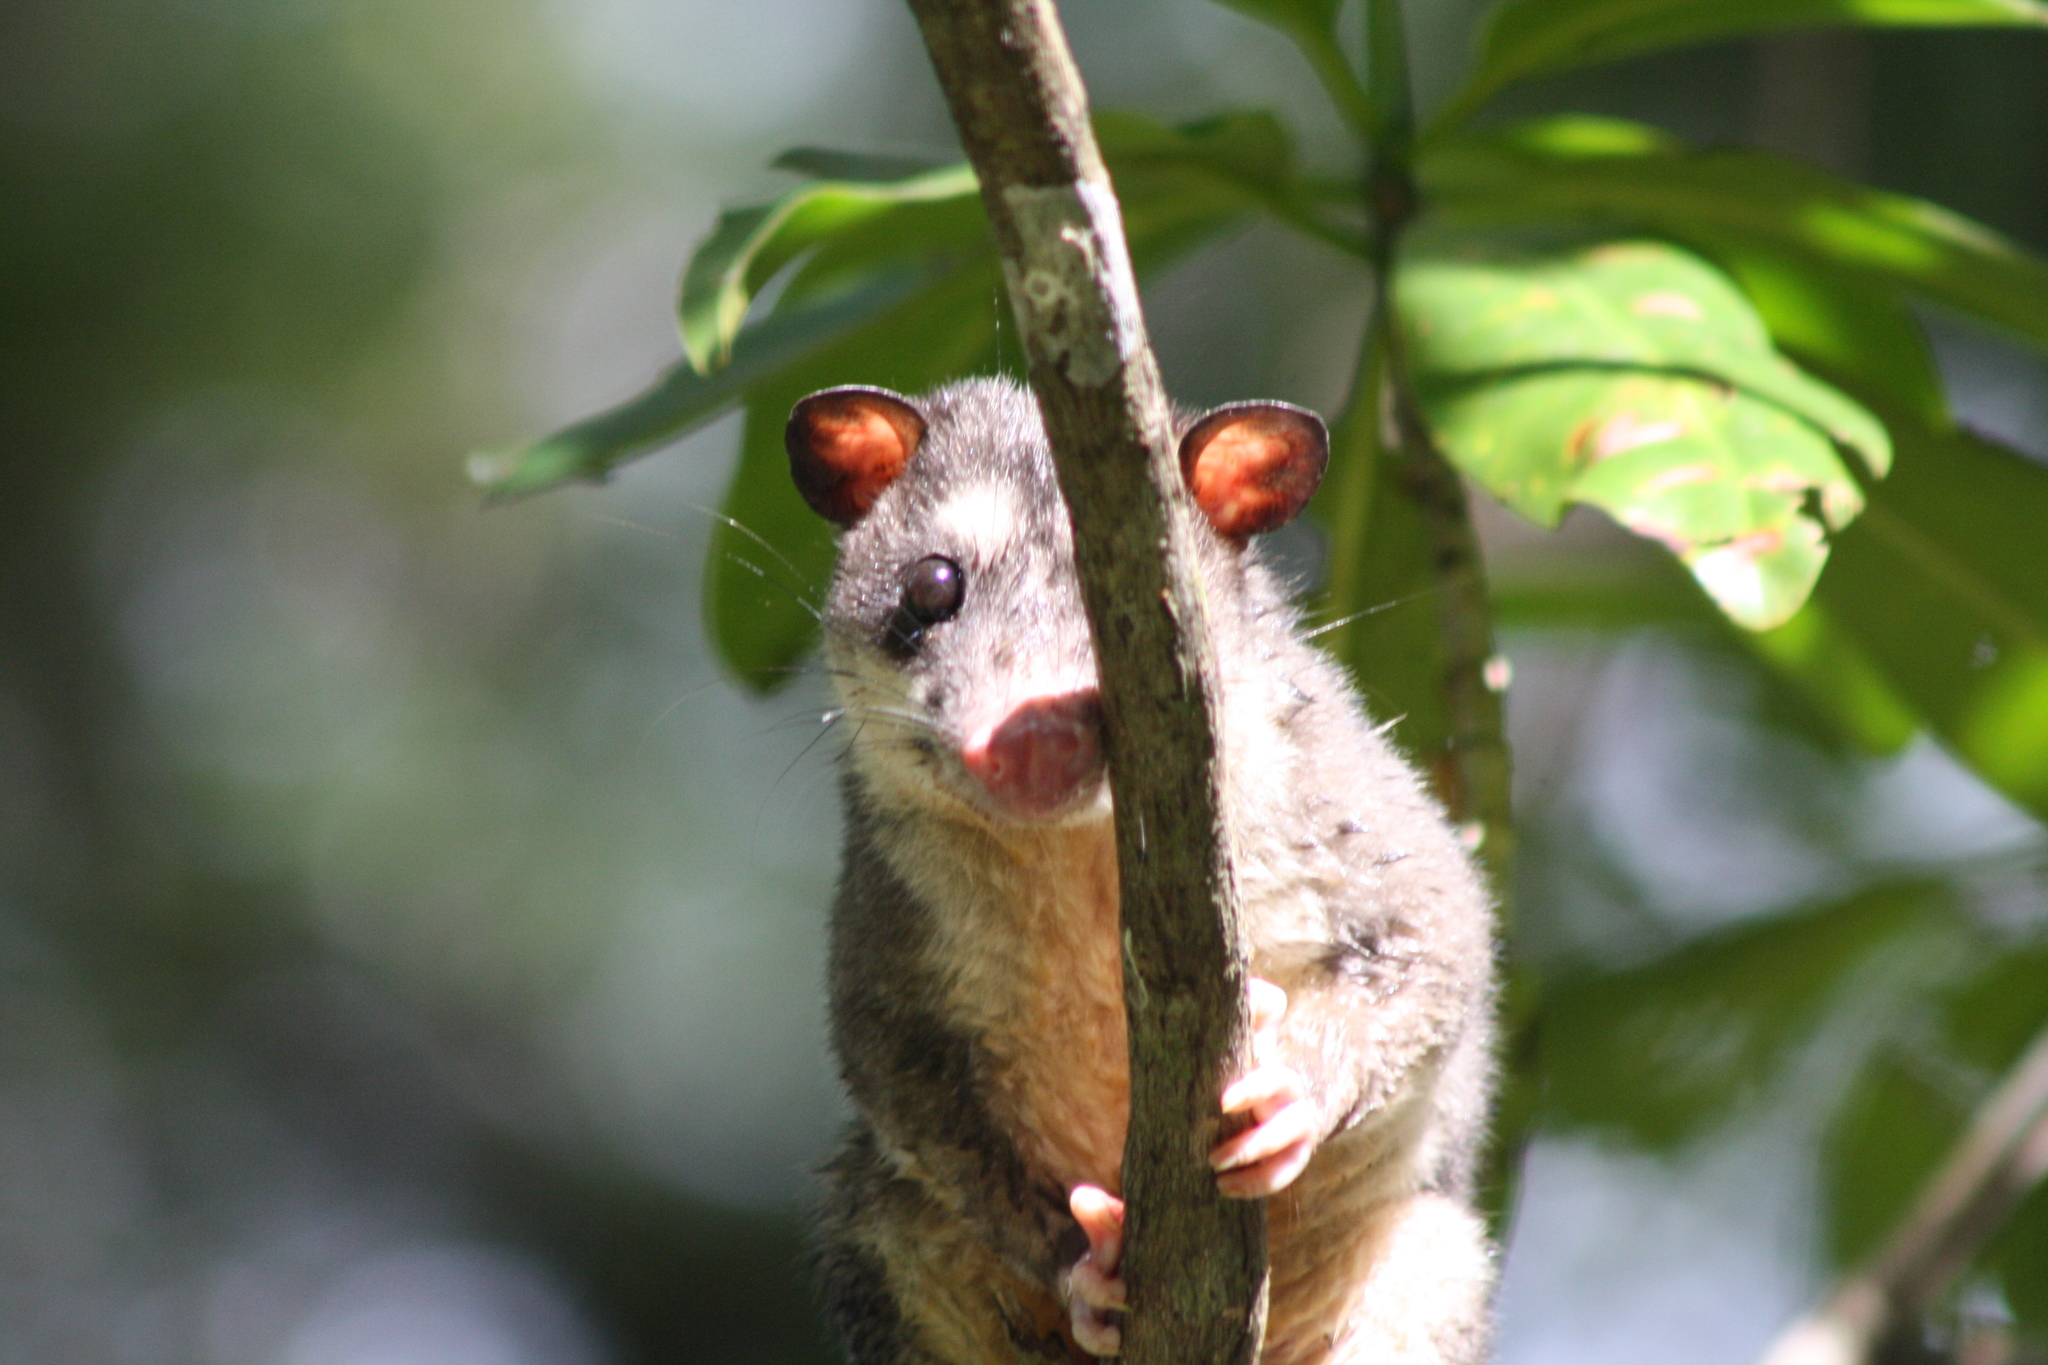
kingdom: Animalia
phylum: Chordata
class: Mammalia
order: Didelphimorphia
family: Didelphidae
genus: Philander
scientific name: Philander
